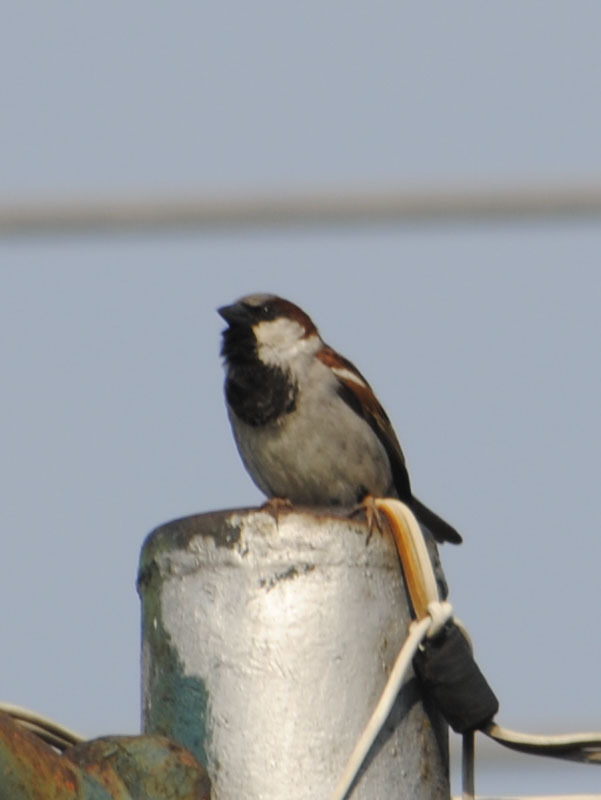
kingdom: Animalia
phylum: Chordata
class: Aves
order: Passeriformes
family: Passeridae
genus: Passer
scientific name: Passer domesticus
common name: House sparrow
